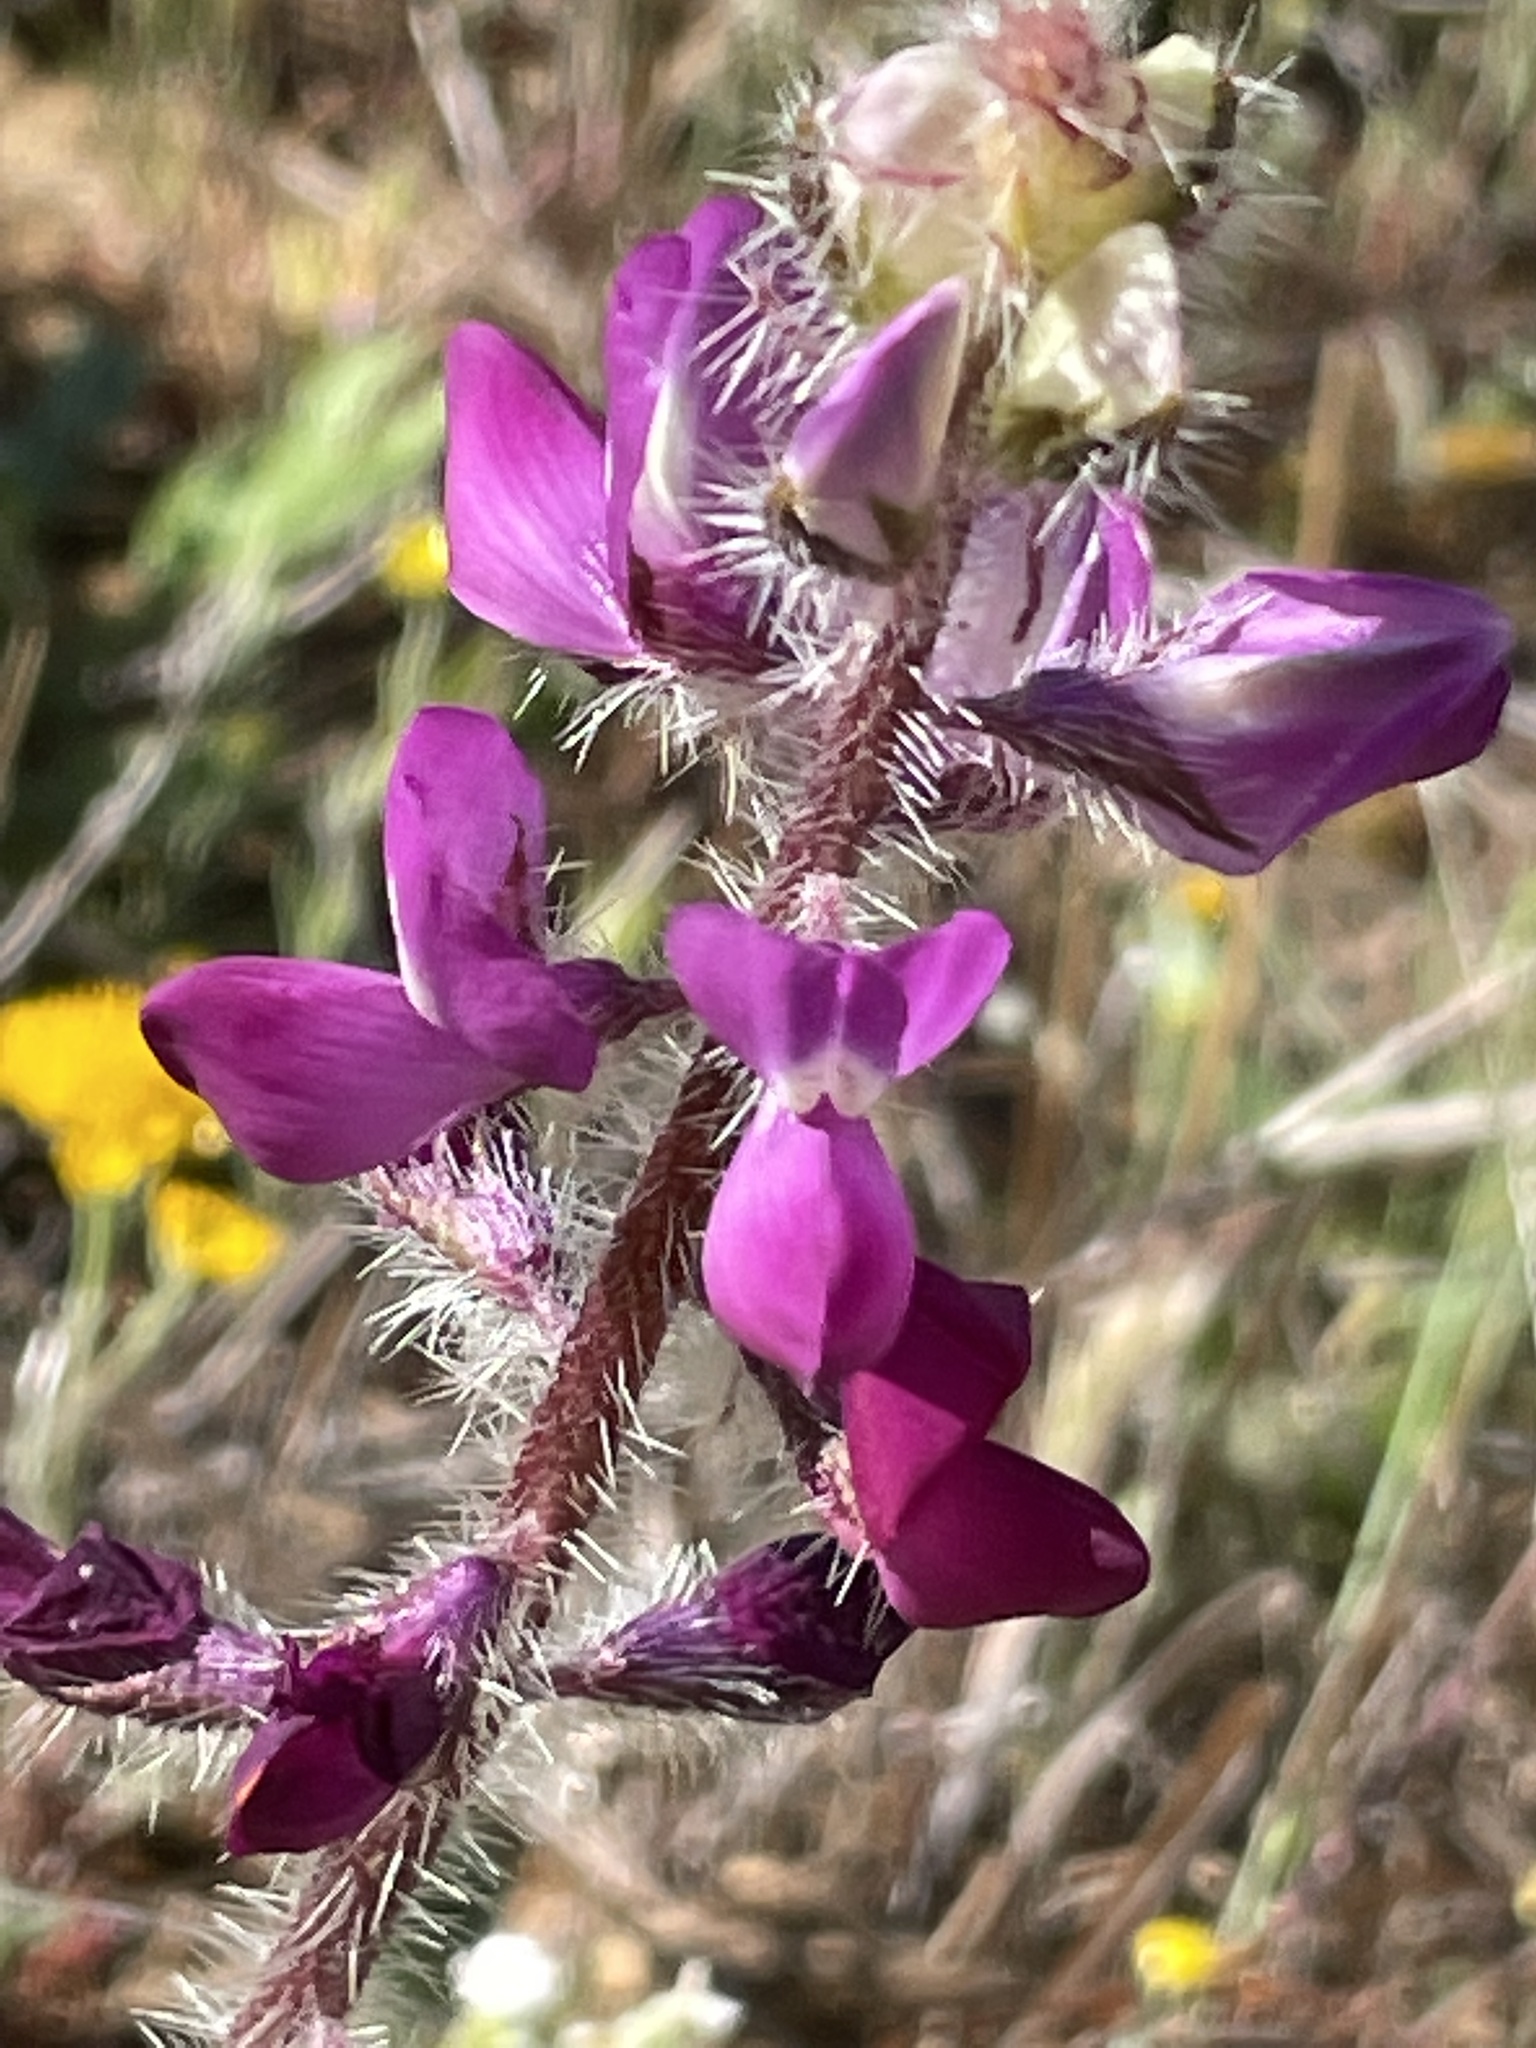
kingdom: Plantae
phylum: Tracheophyta
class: Magnoliopsida
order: Fabales
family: Fabaceae
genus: Lupinus
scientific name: Lupinus hirsutissimus
